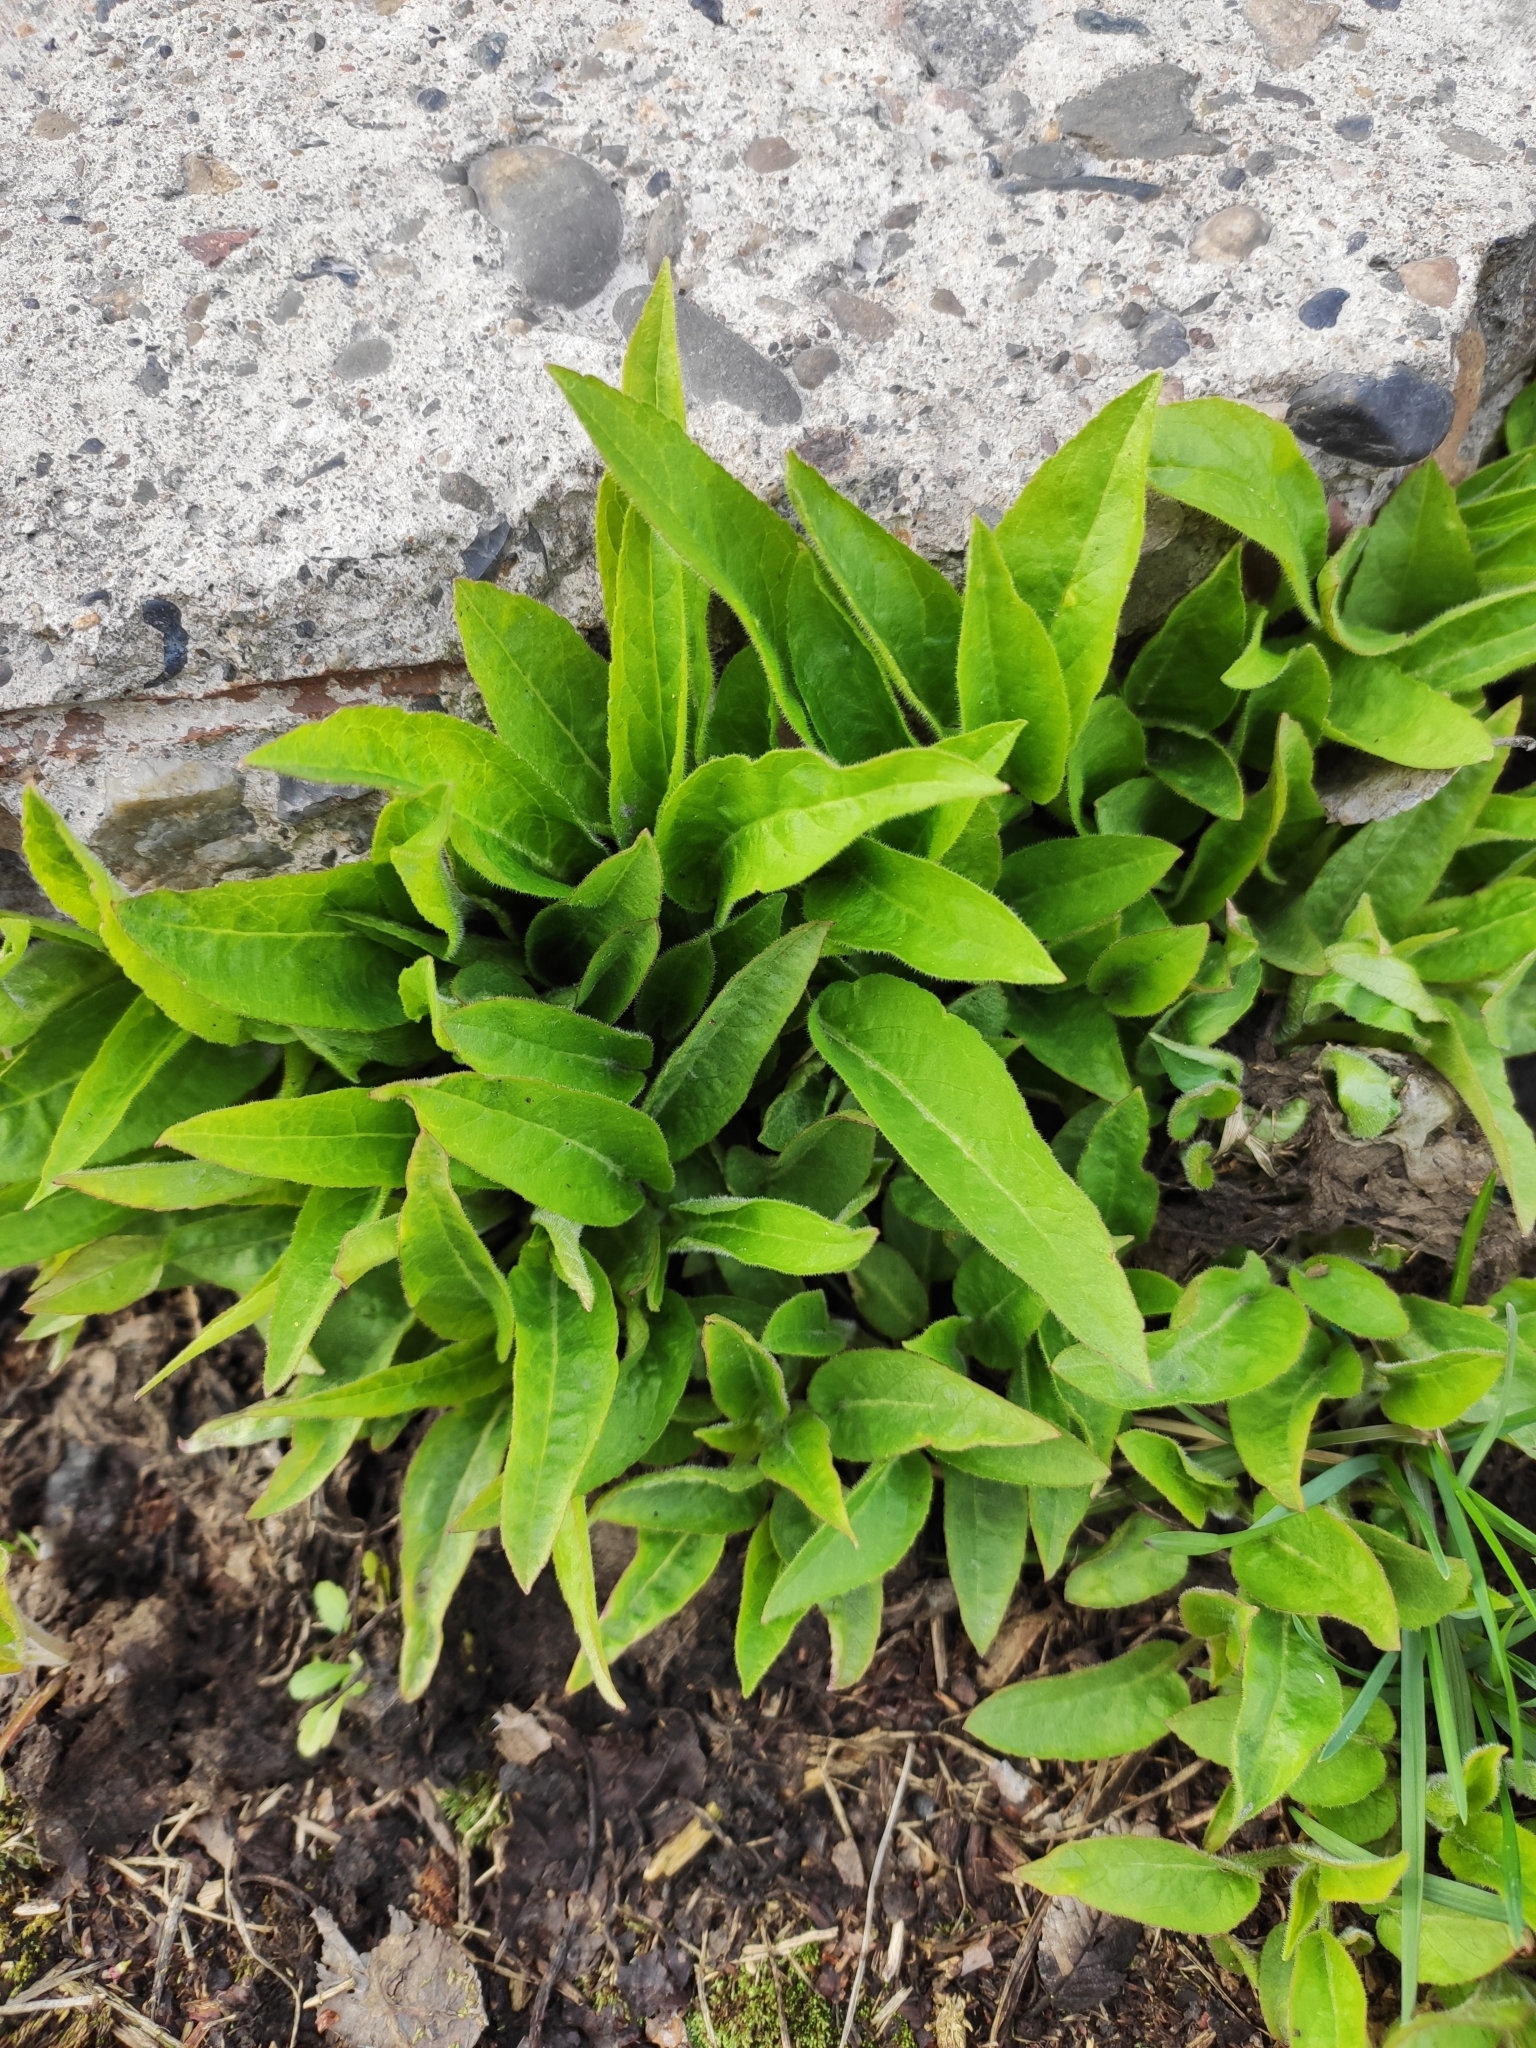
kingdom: Plantae
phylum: Tracheophyta
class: Magnoliopsida
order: Brassicales
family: Brassicaceae
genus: Bunias
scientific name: Bunias orientalis
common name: Warty-cabbage
